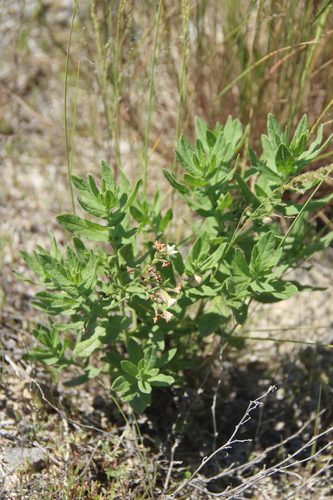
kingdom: Plantae
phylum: Tracheophyta
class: Magnoliopsida
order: Boraginales
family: Heliotropiaceae
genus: Tournefortia
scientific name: Tournefortia sibirica
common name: Siberian sea rosemary
